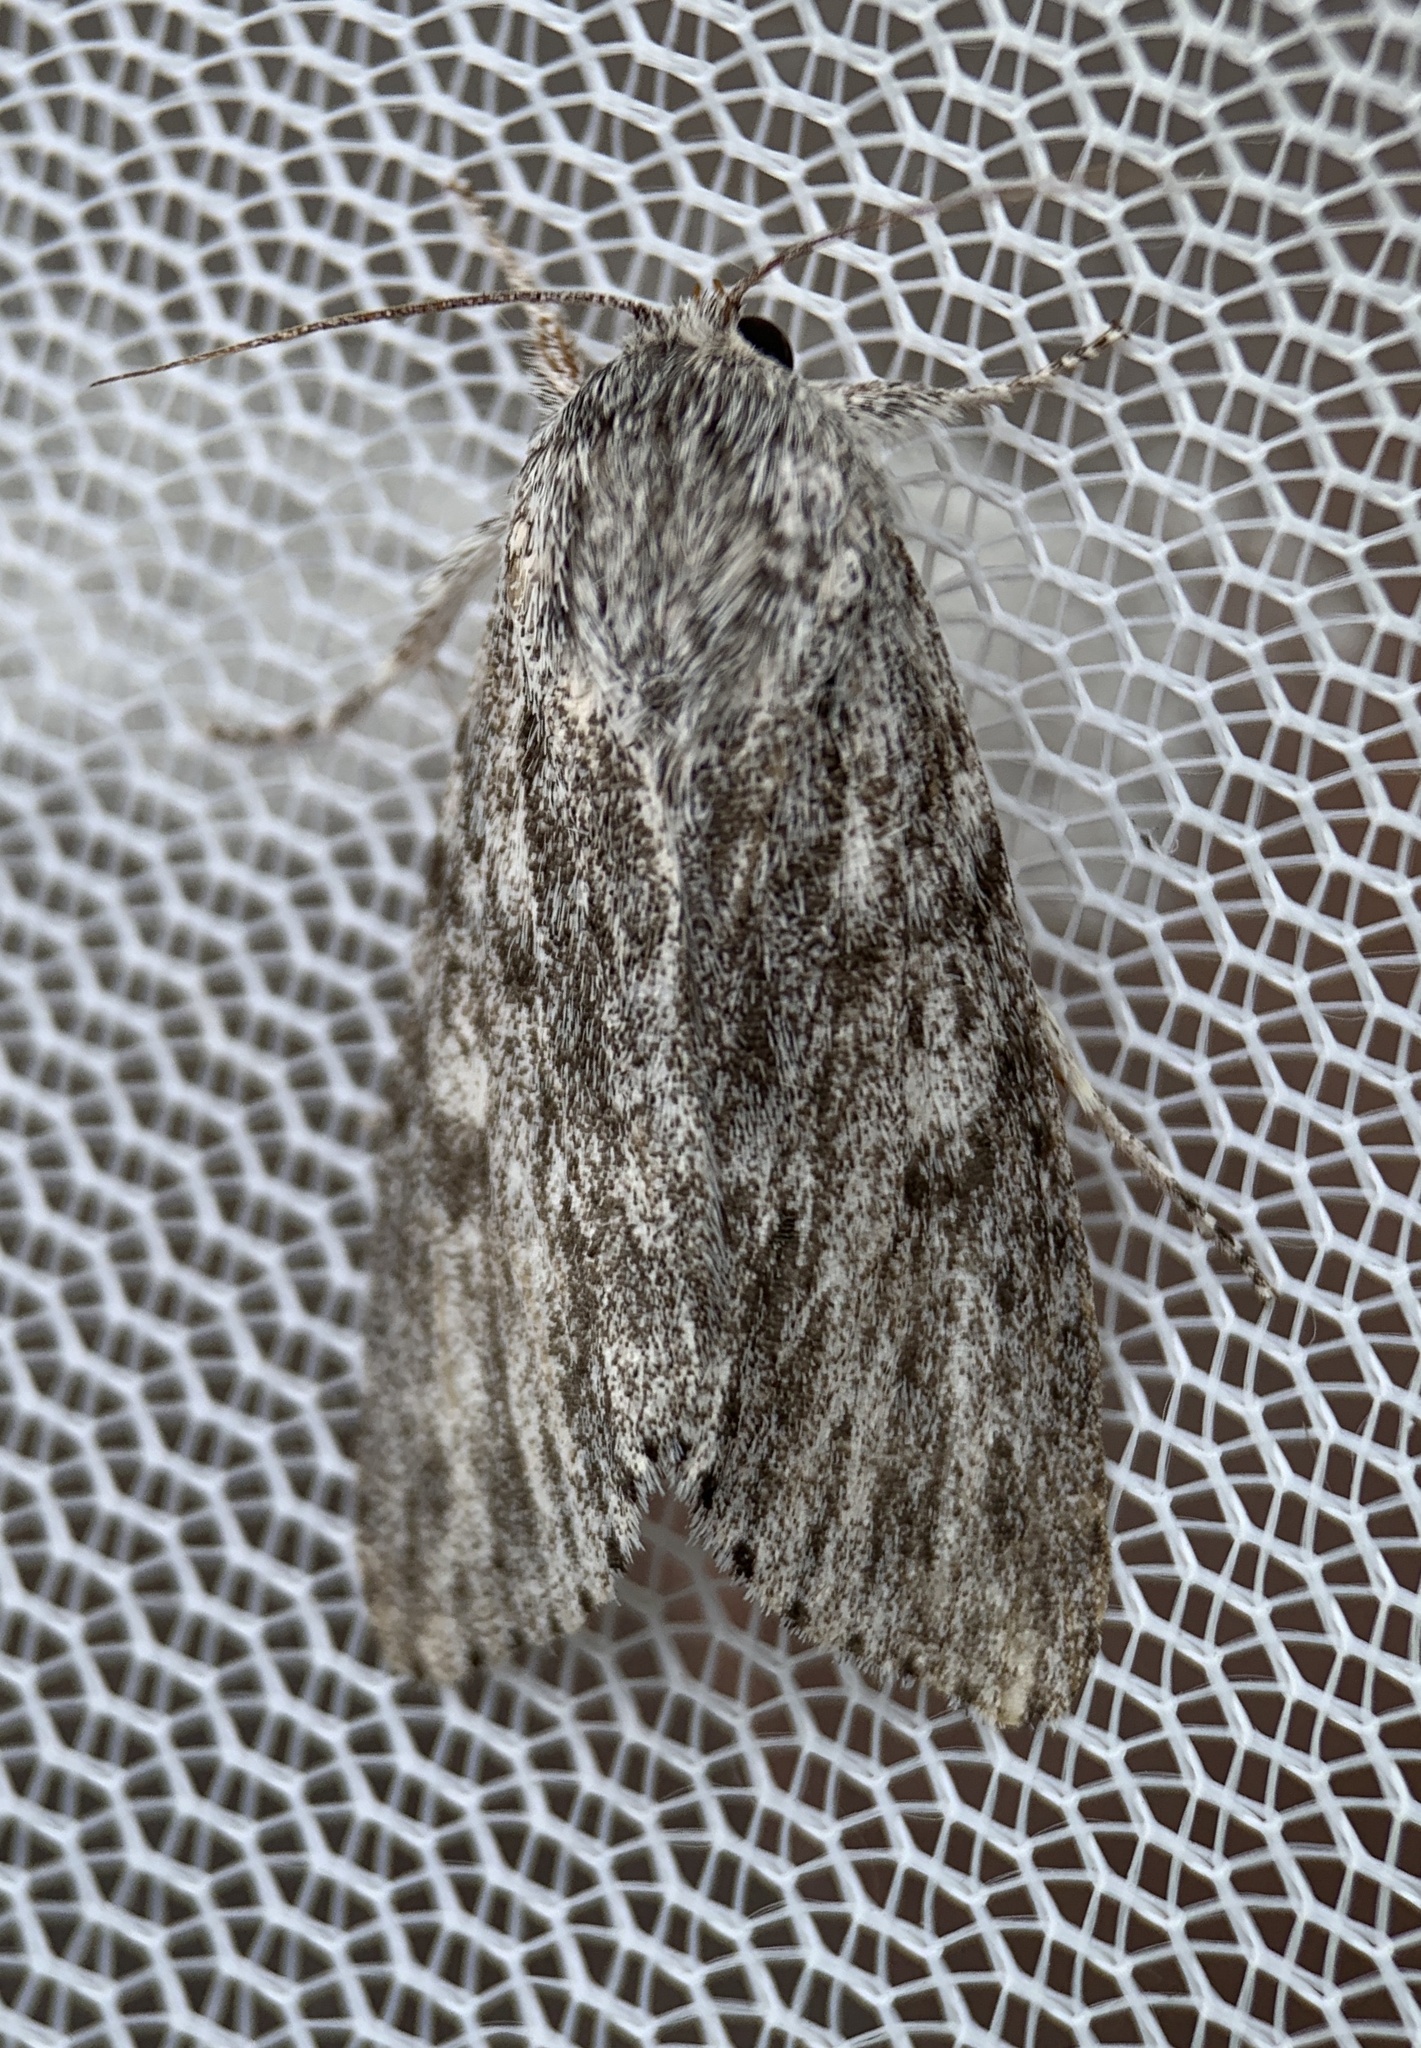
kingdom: Animalia
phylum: Arthropoda
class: Insecta
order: Lepidoptera
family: Noctuidae
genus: Acronicta
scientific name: Acronicta oblinita
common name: Smeared dagger
